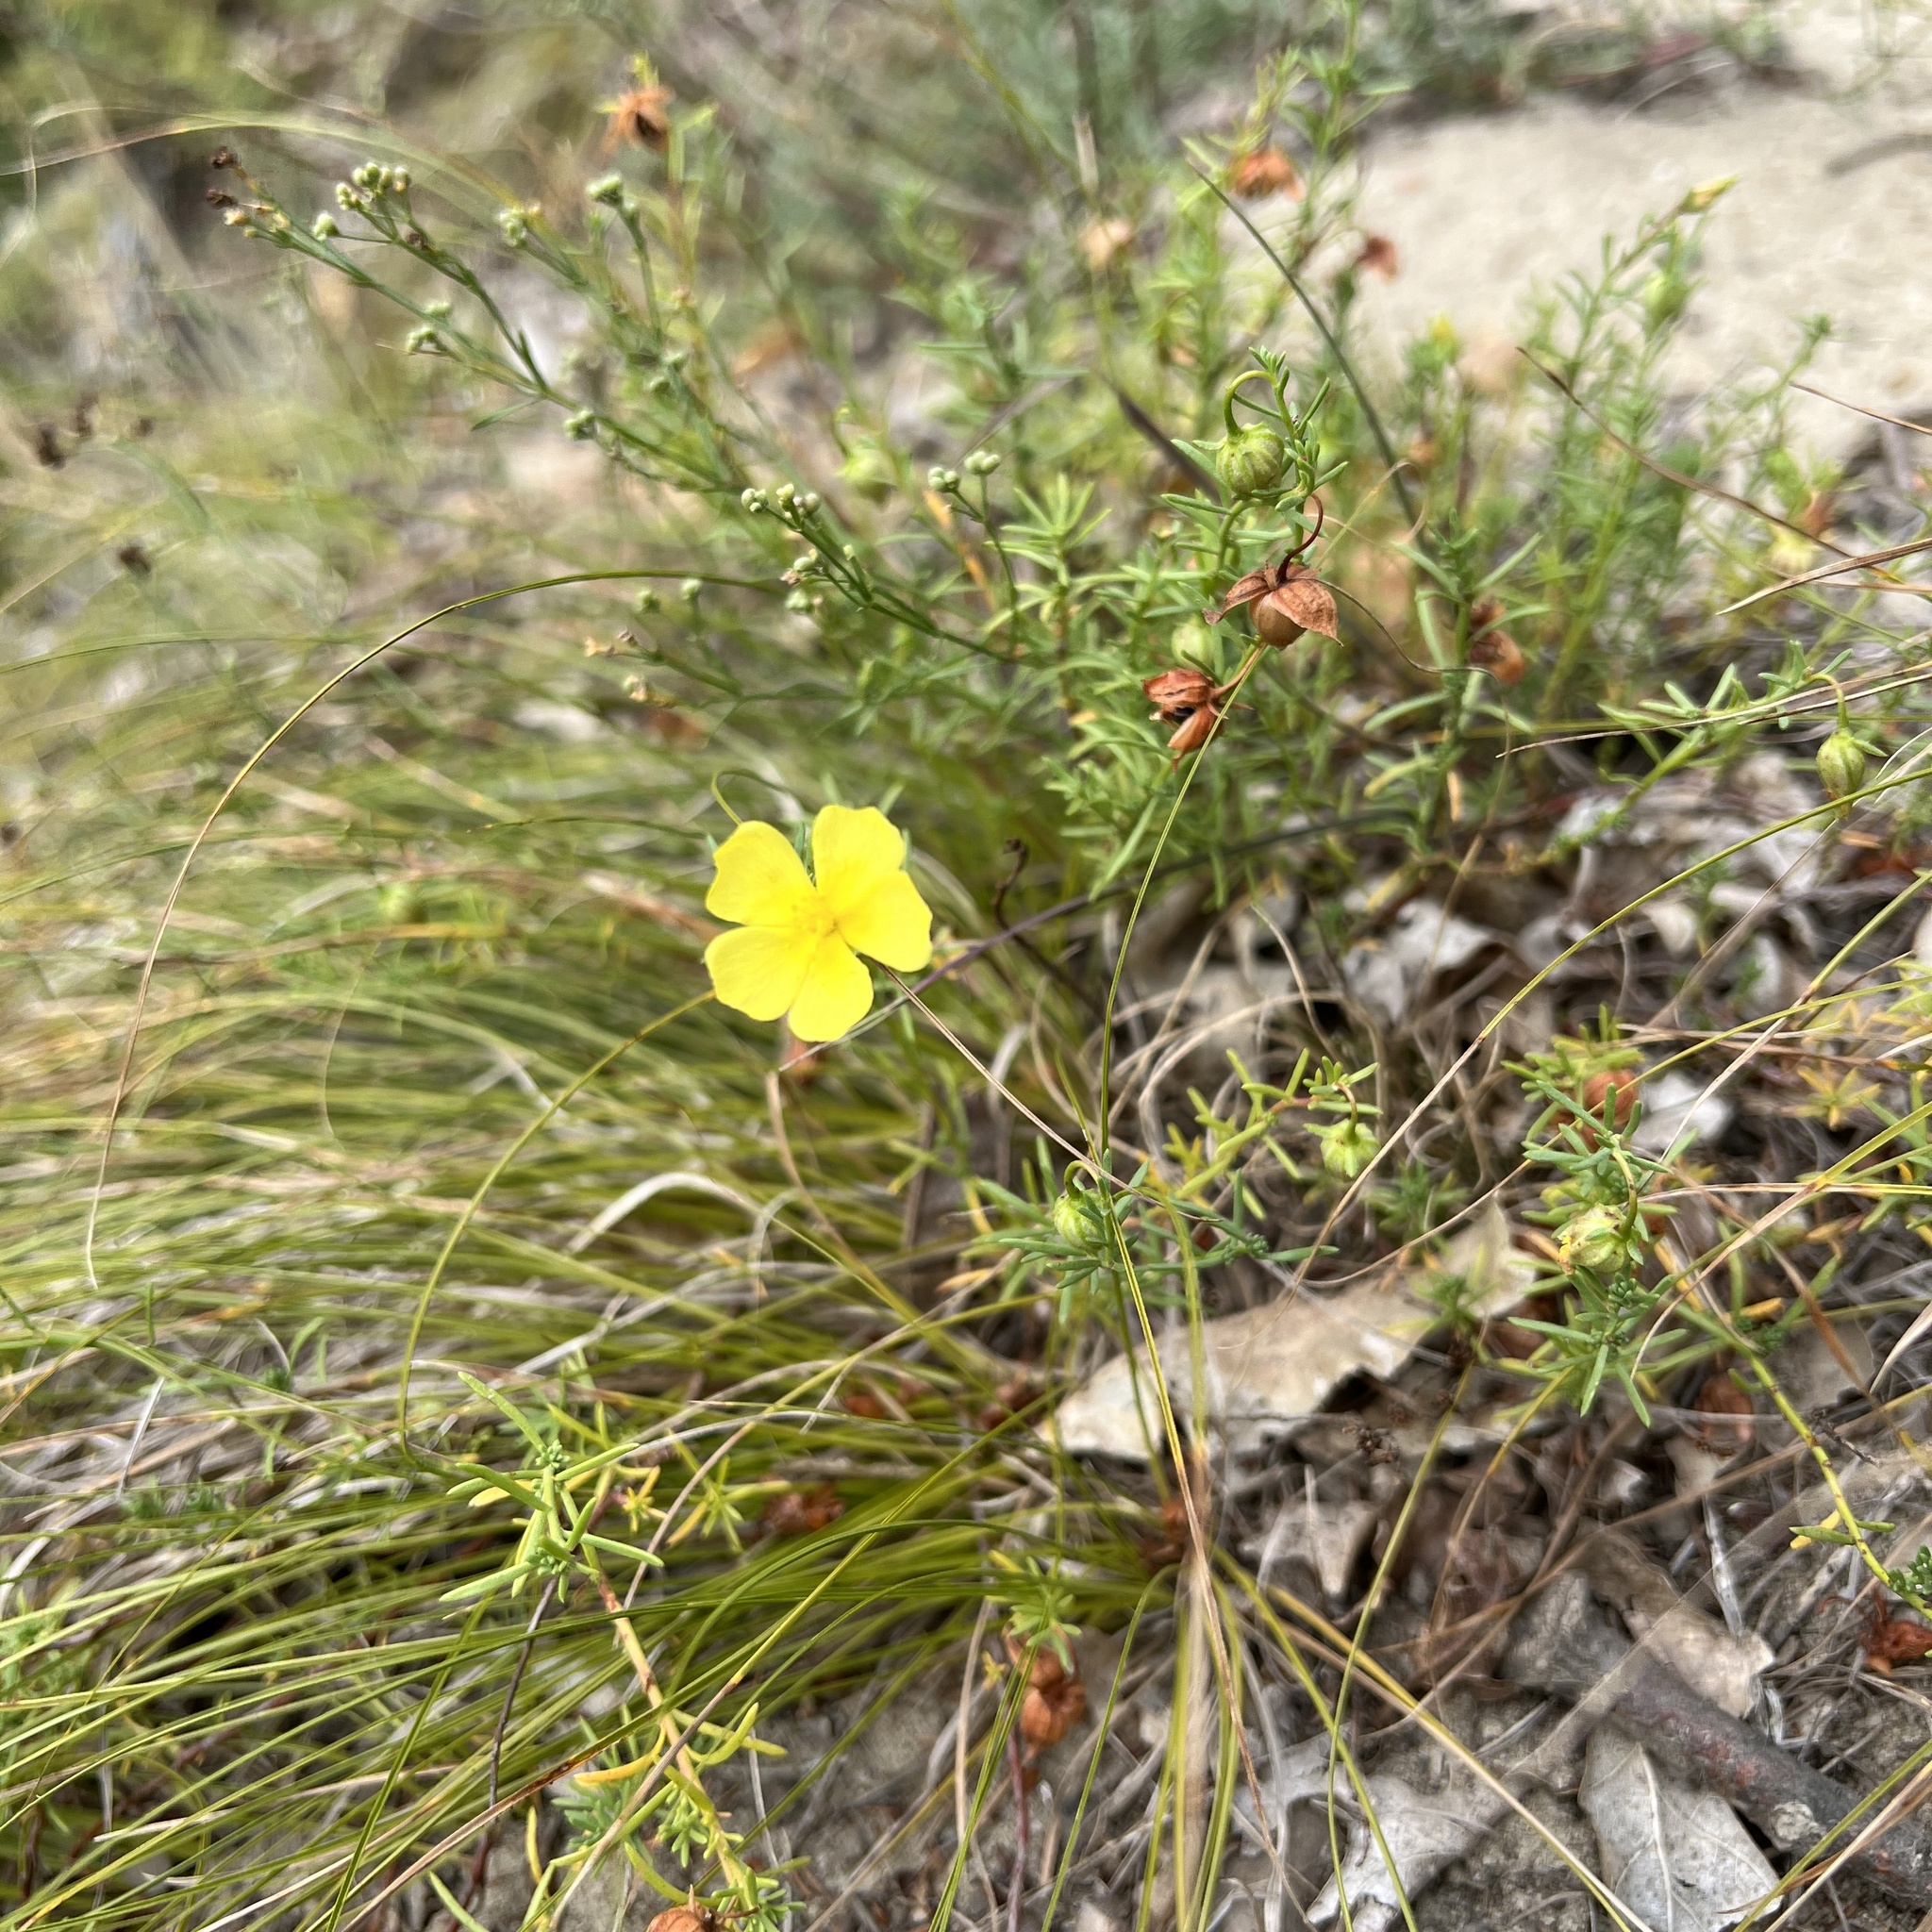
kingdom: Plantae
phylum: Tracheophyta
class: Magnoliopsida
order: Malvales
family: Cistaceae
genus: Fumana
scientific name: Fumana procumbens
